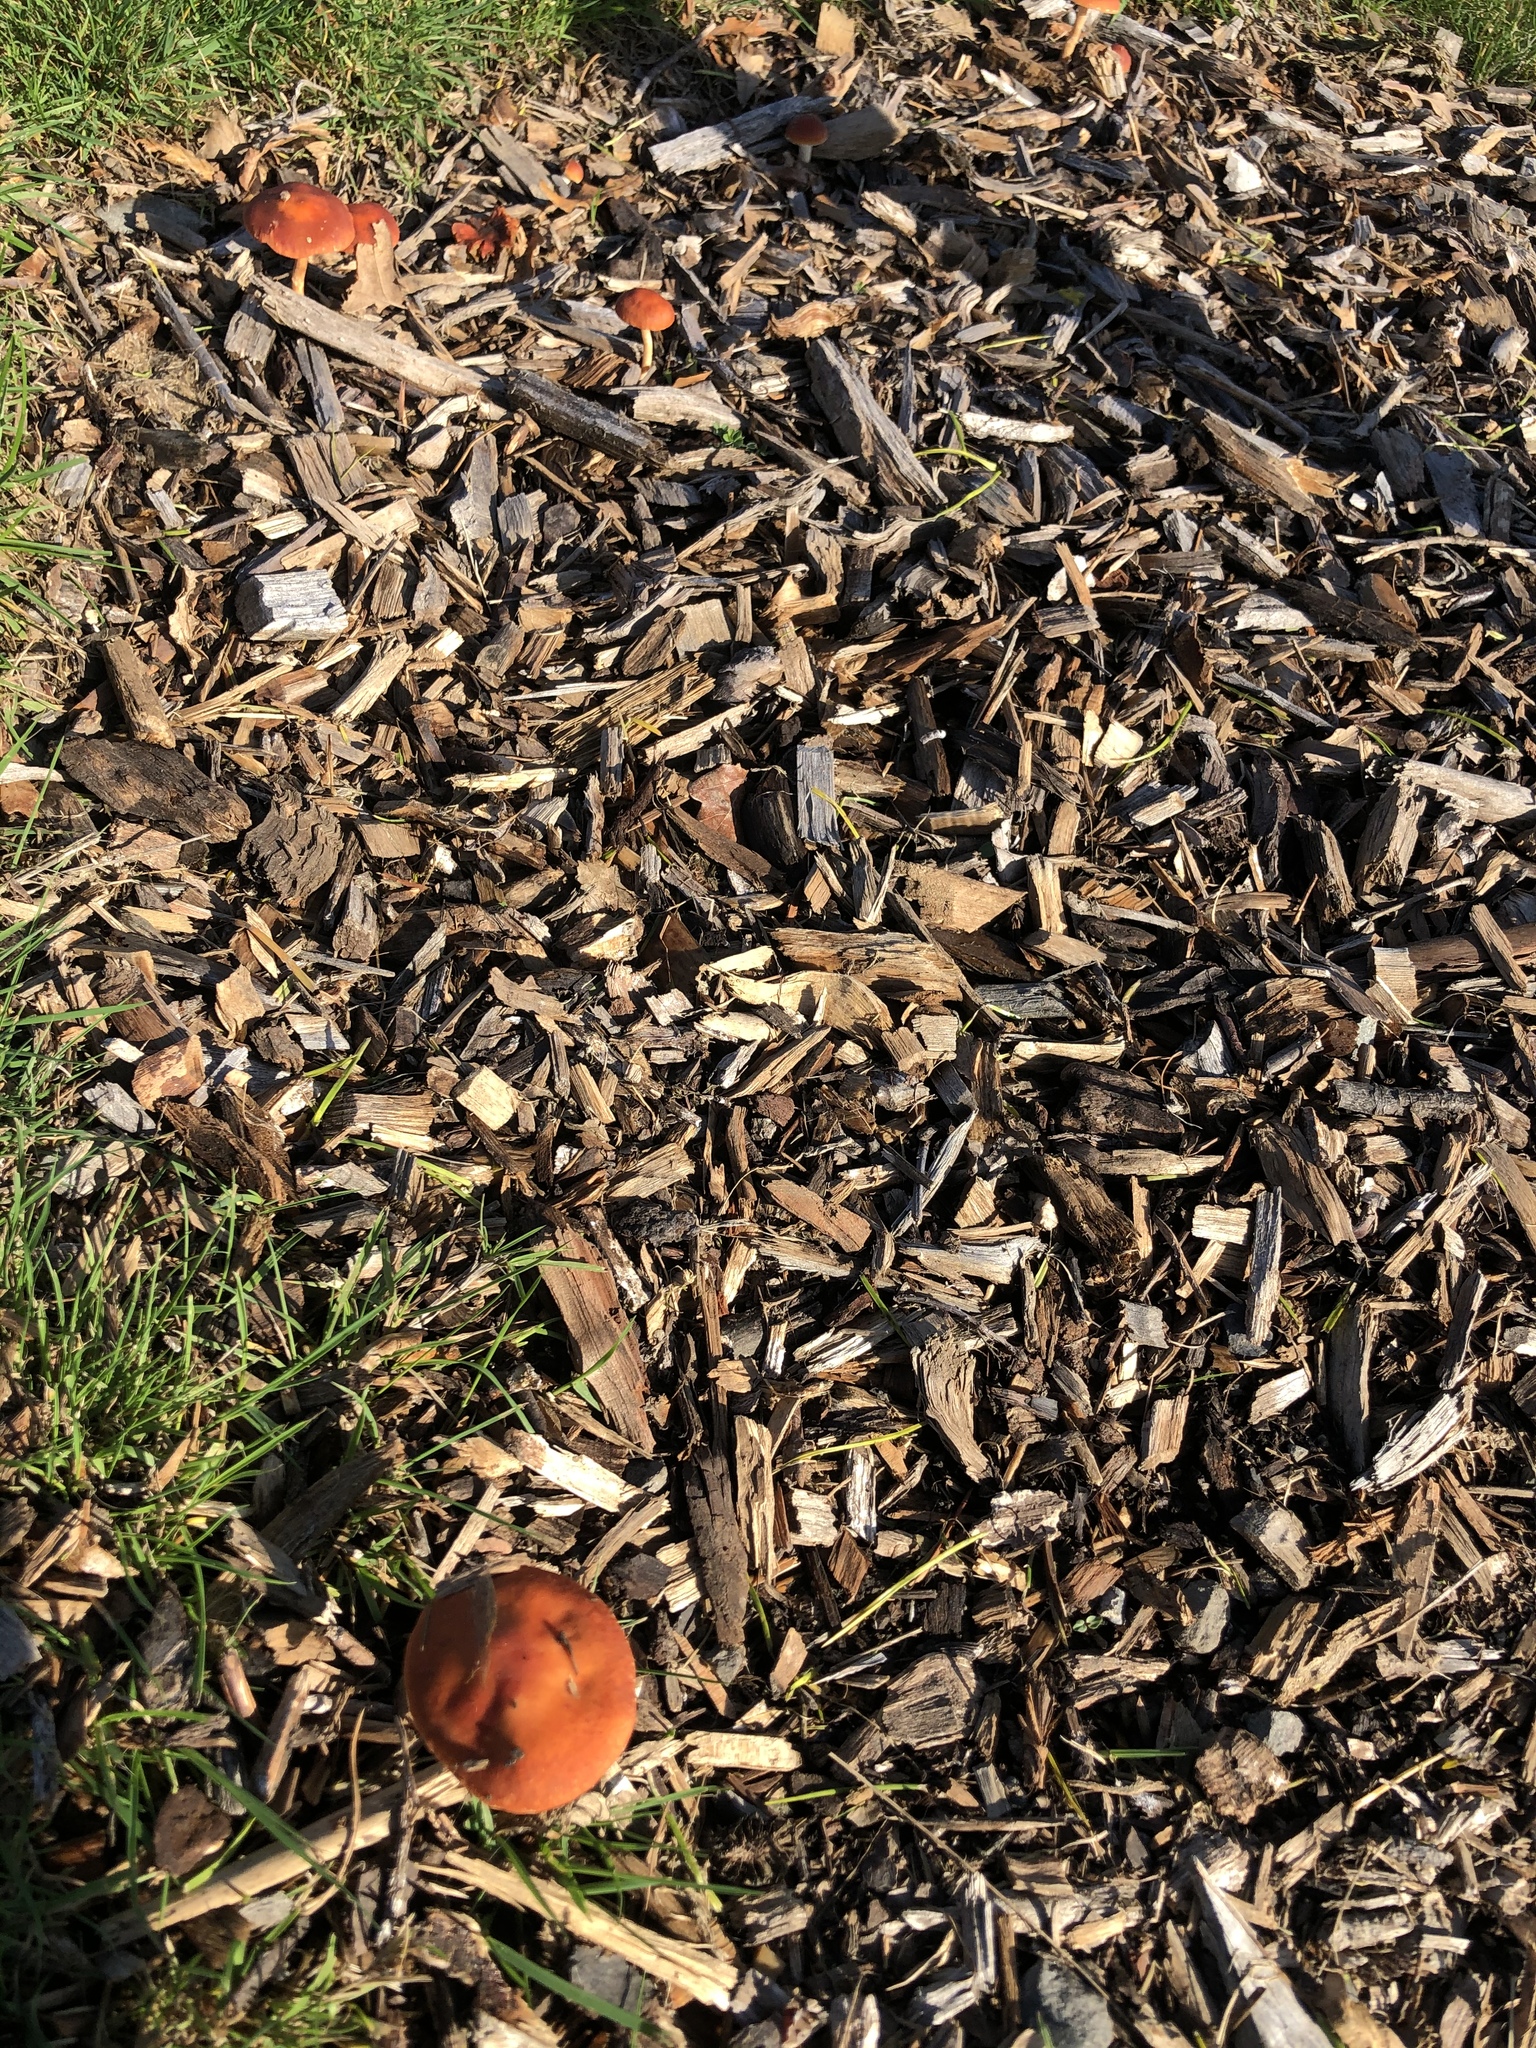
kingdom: Fungi
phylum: Basidiomycota
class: Agaricomycetes
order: Agaricales
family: Strophariaceae
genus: Leratiomyces
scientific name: Leratiomyces ceres
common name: Redlead roundhead
